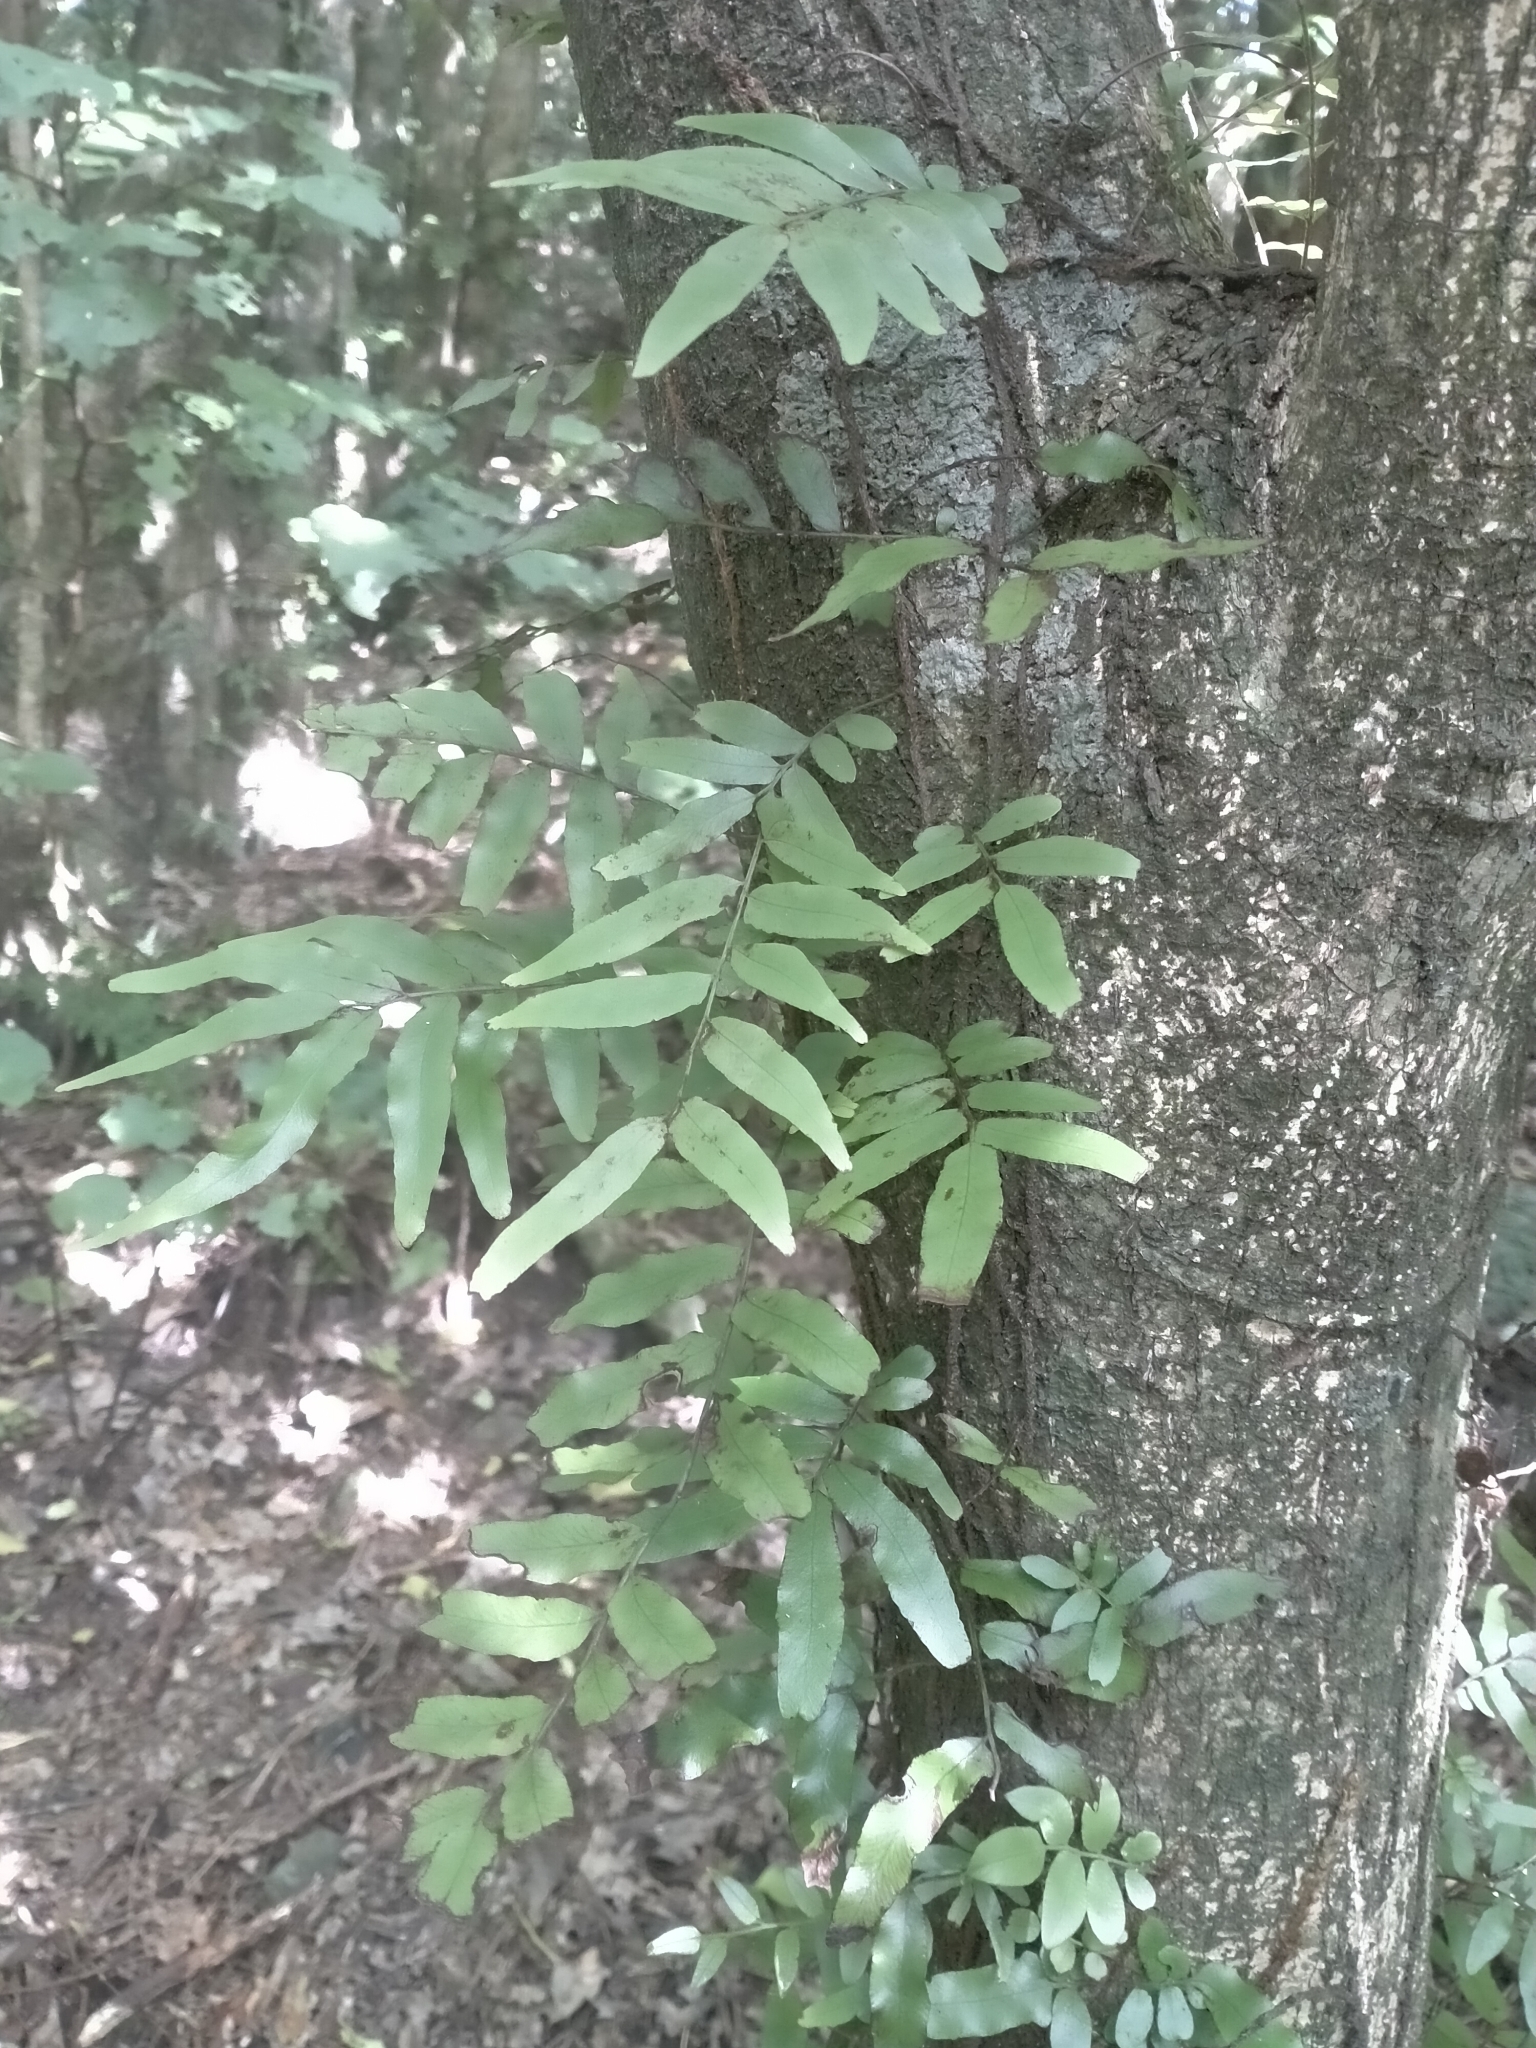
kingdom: Plantae
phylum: Tracheophyta
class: Polypodiopsida
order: Polypodiales
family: Tectariaceae
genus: Arthropteris
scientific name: Arthropteris tenella
